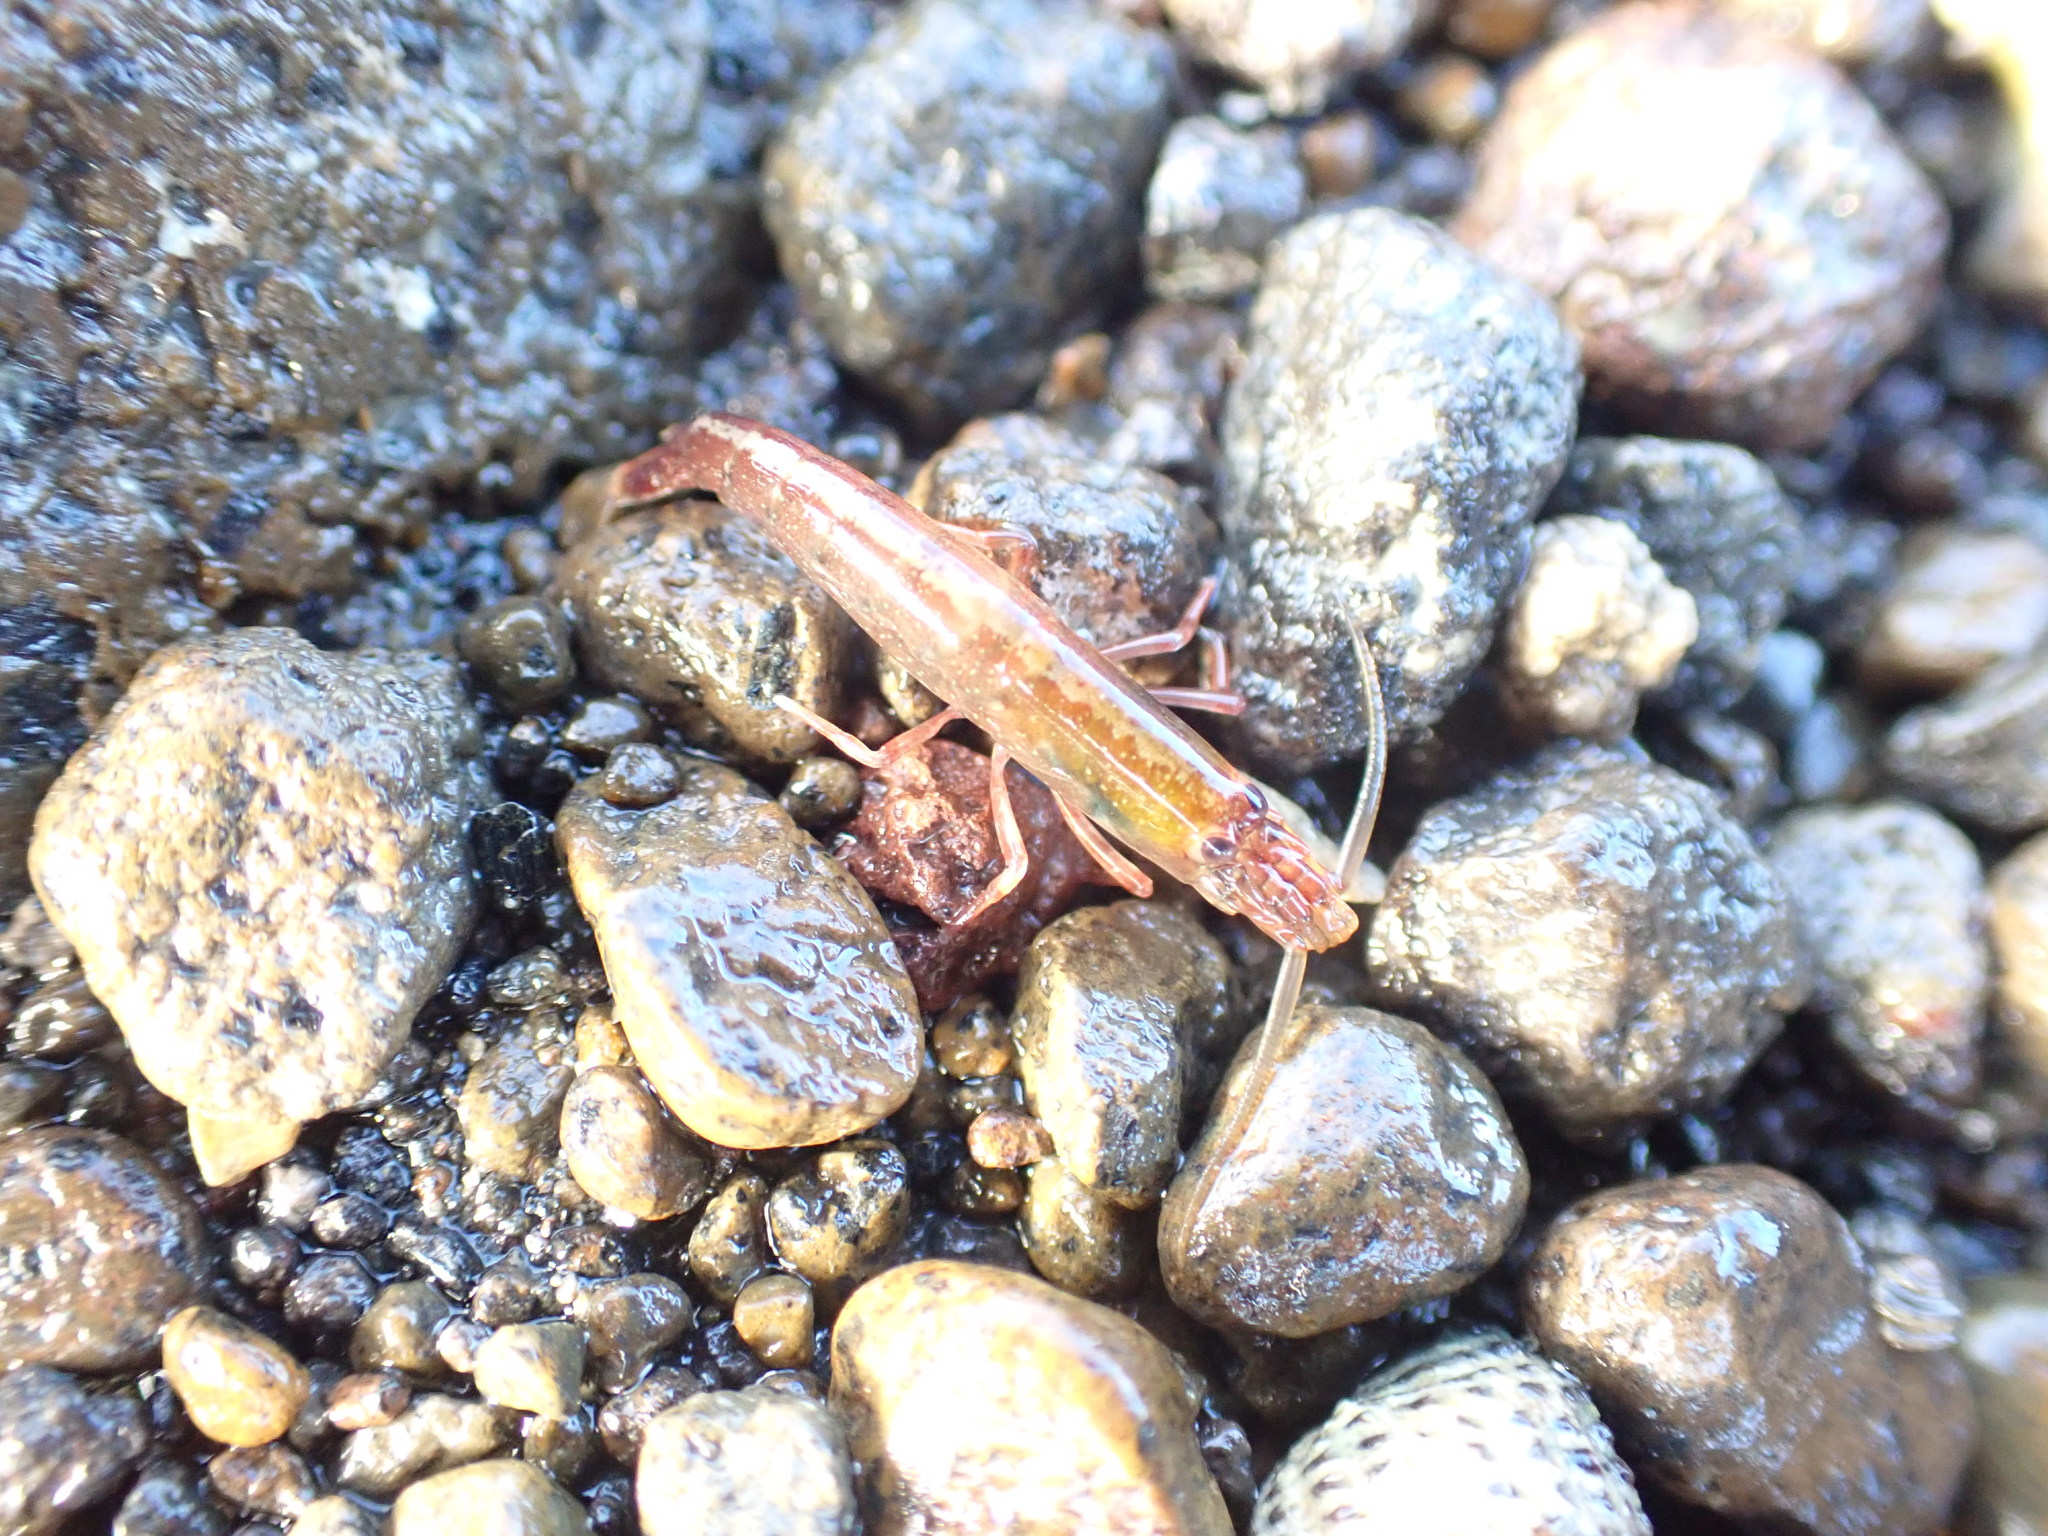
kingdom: Animalia
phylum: Arthropoda
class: Malacostraca
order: Decapoda
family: Alpheidae
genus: Betaeopsis
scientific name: Betaeopsis aequimanus
